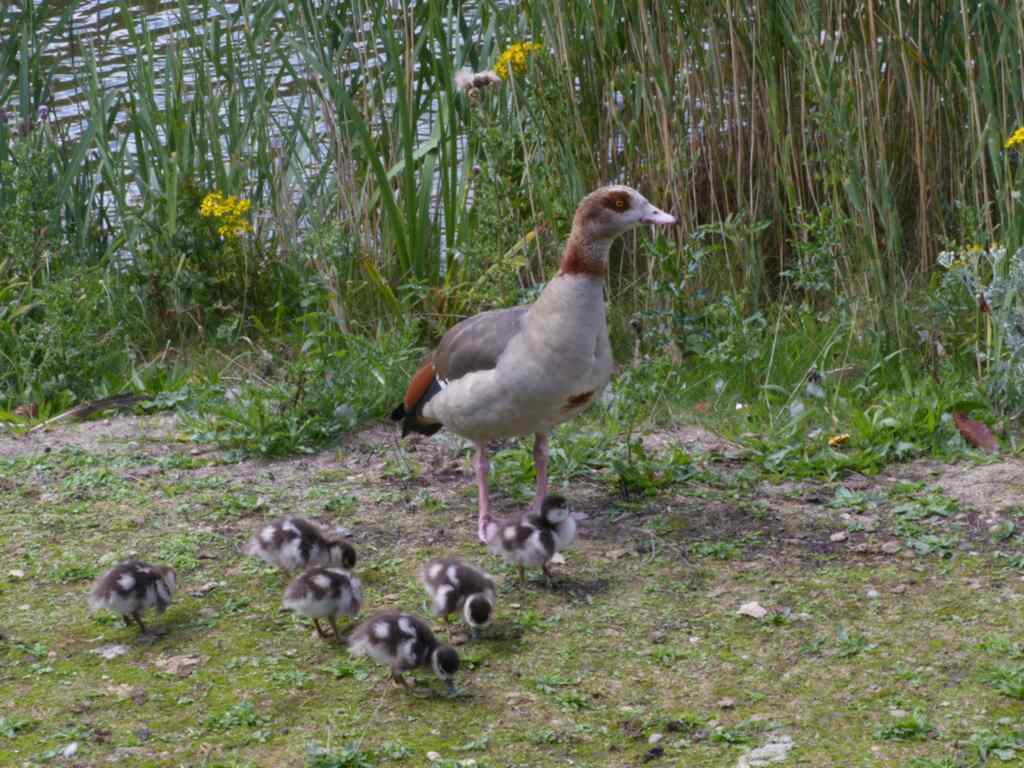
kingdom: Animalia
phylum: Chordata
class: Aves
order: Anseriformes
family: Anatidae
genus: Alopochen
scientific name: Alopochen aegyptiaca
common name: Egyptian goose
